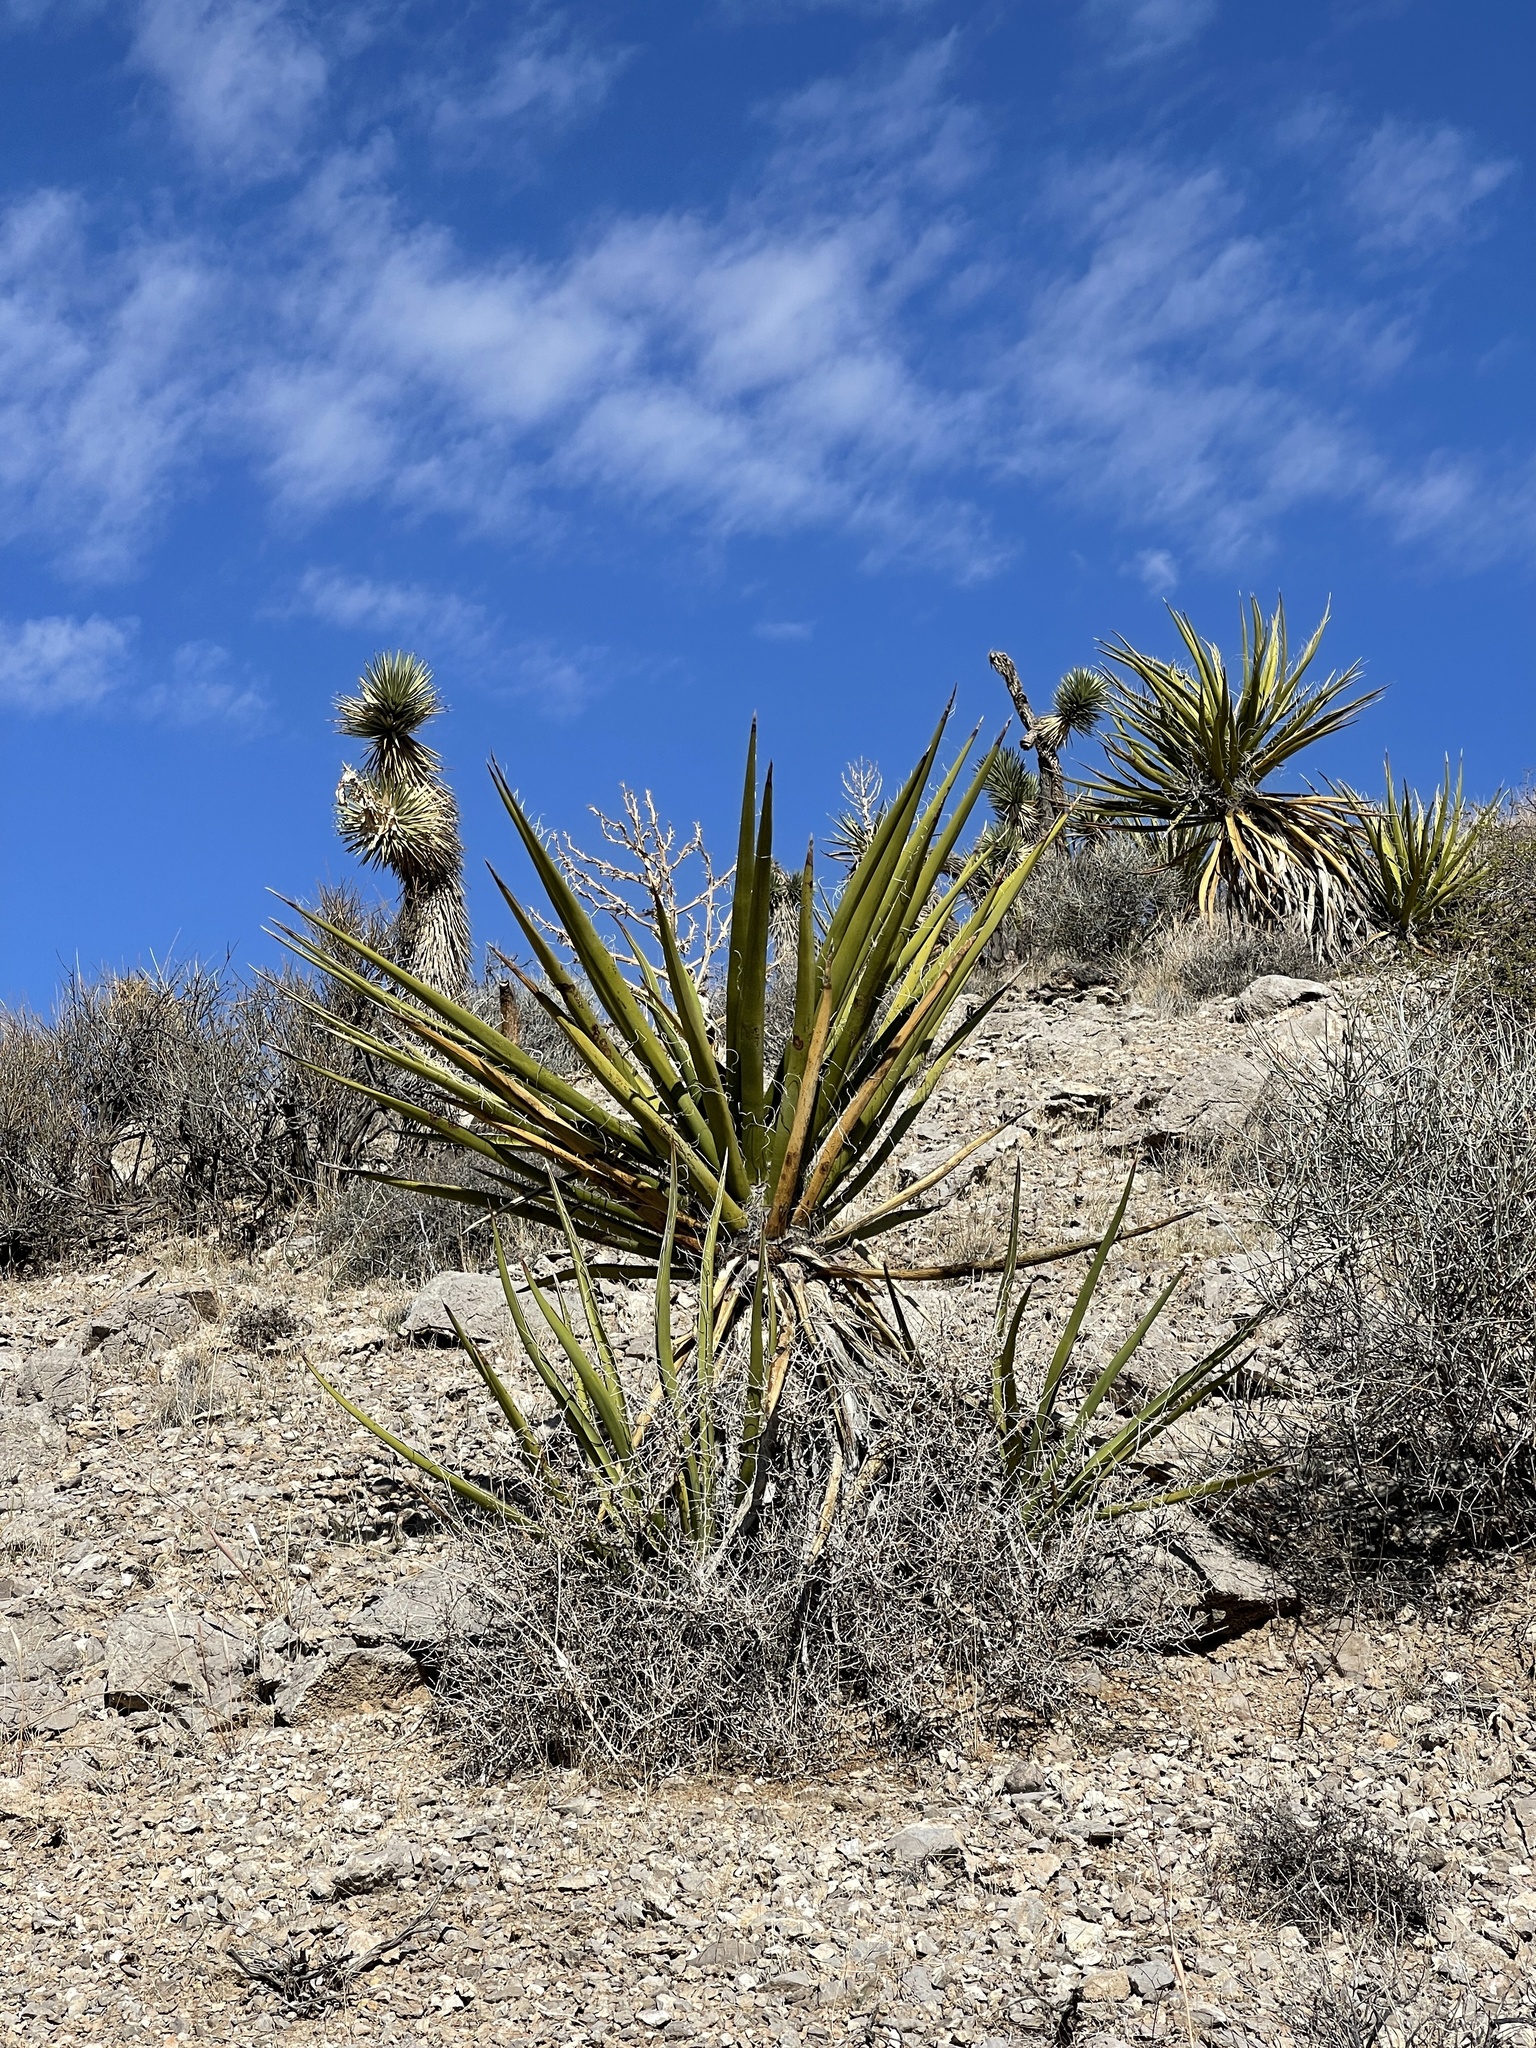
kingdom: Plantae
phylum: Tracheophyta
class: Liliopsida
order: Asparagales
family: Asparagaceae
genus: Yucca
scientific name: Yucca schidigera
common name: Mojave yucca
